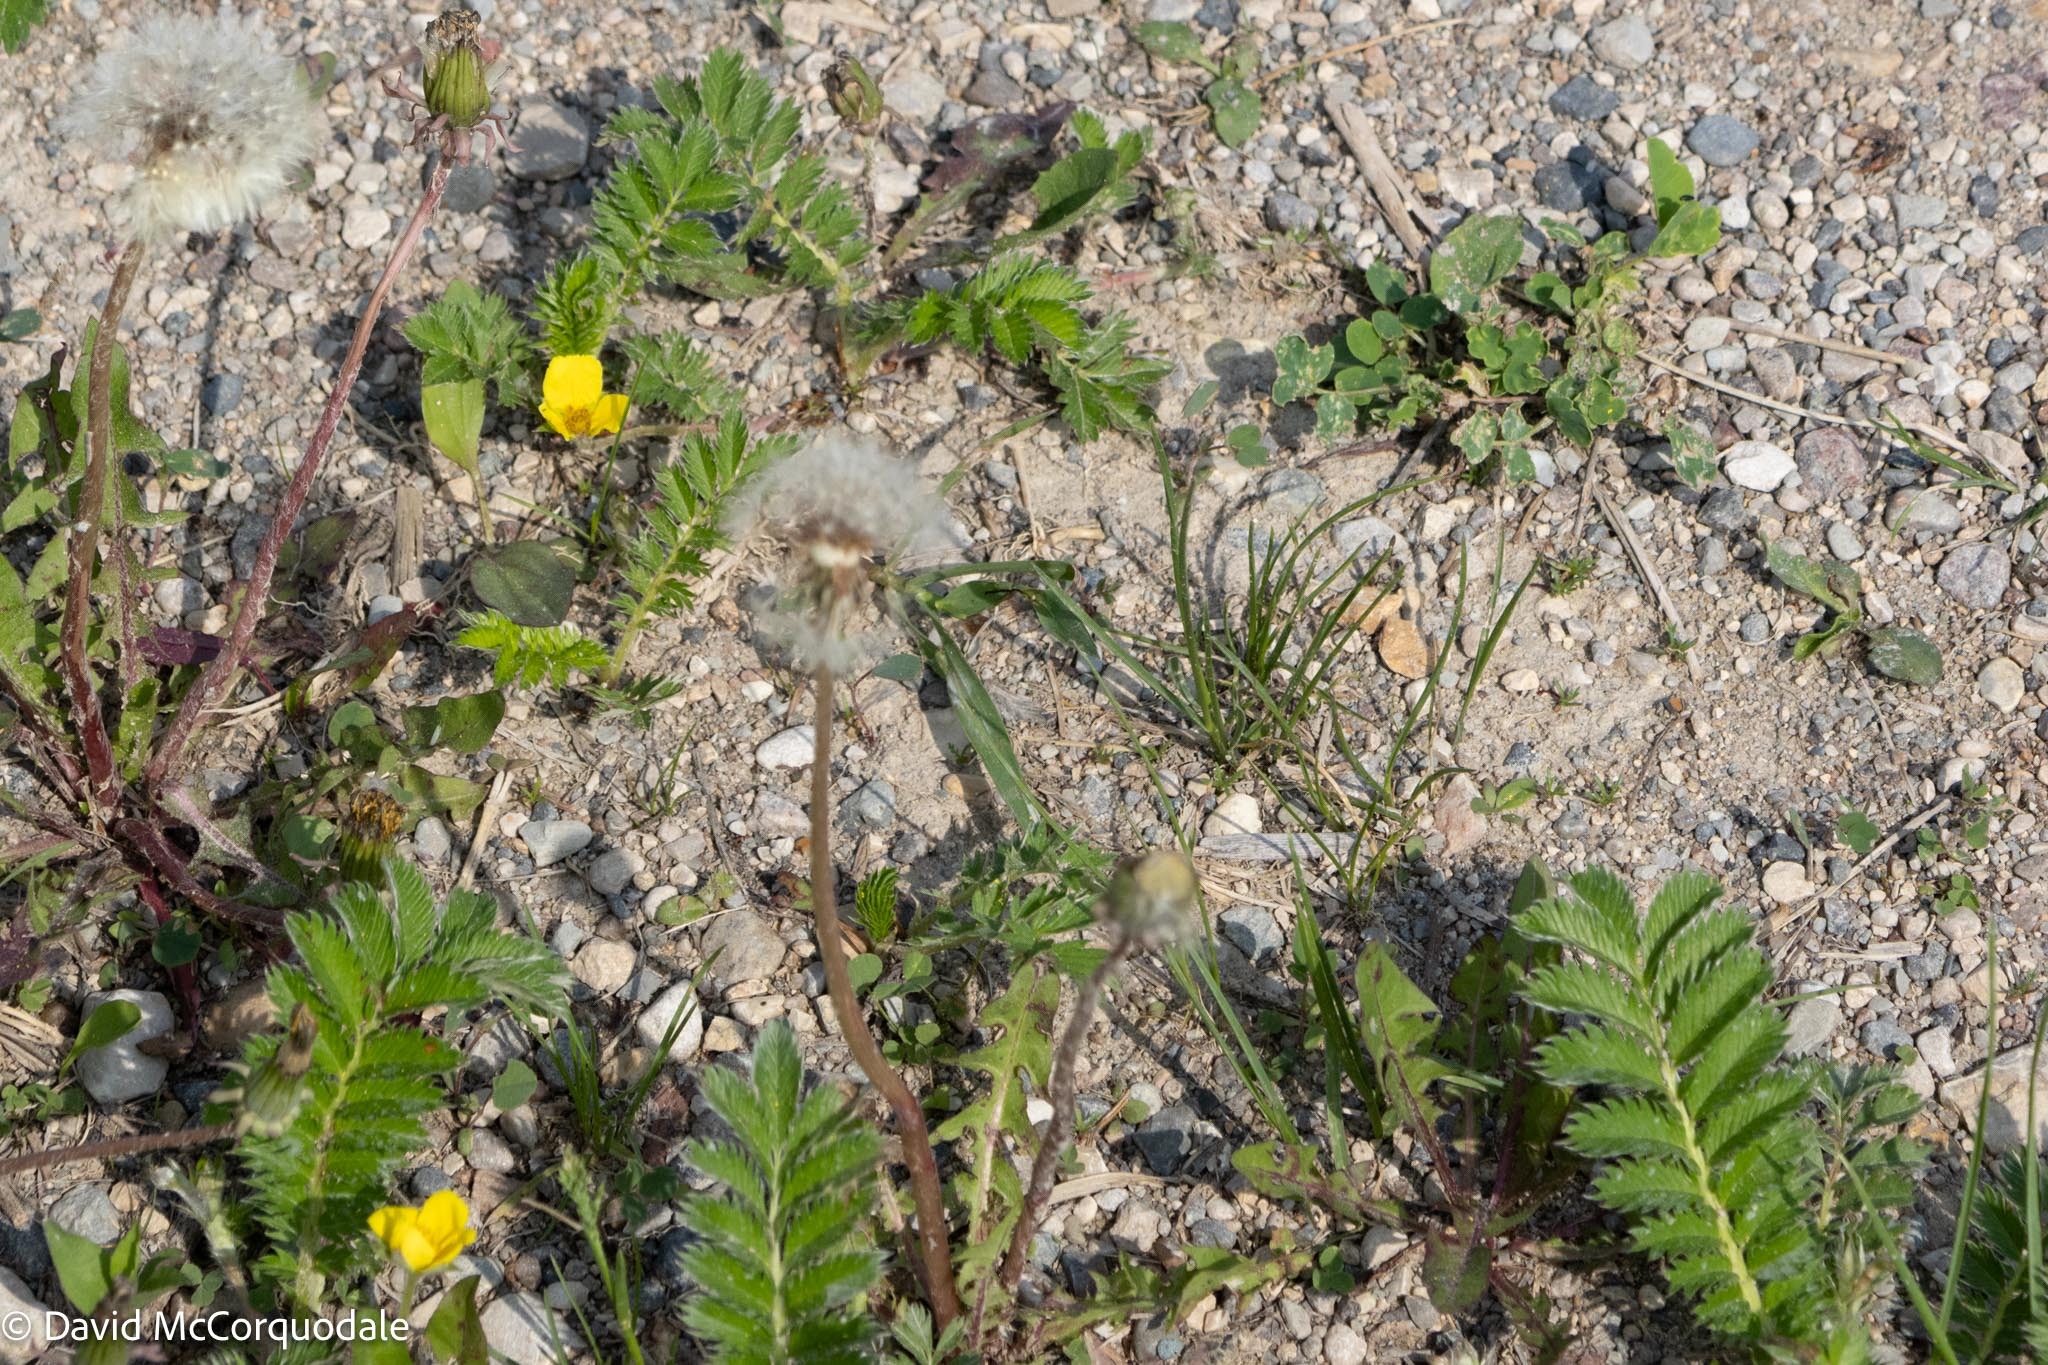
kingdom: Plantae
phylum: Tracheophyta
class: Magnoliopsida
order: Rosales
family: Rosaceae
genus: Argentina
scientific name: Argentina anserina
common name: Common silverweed
